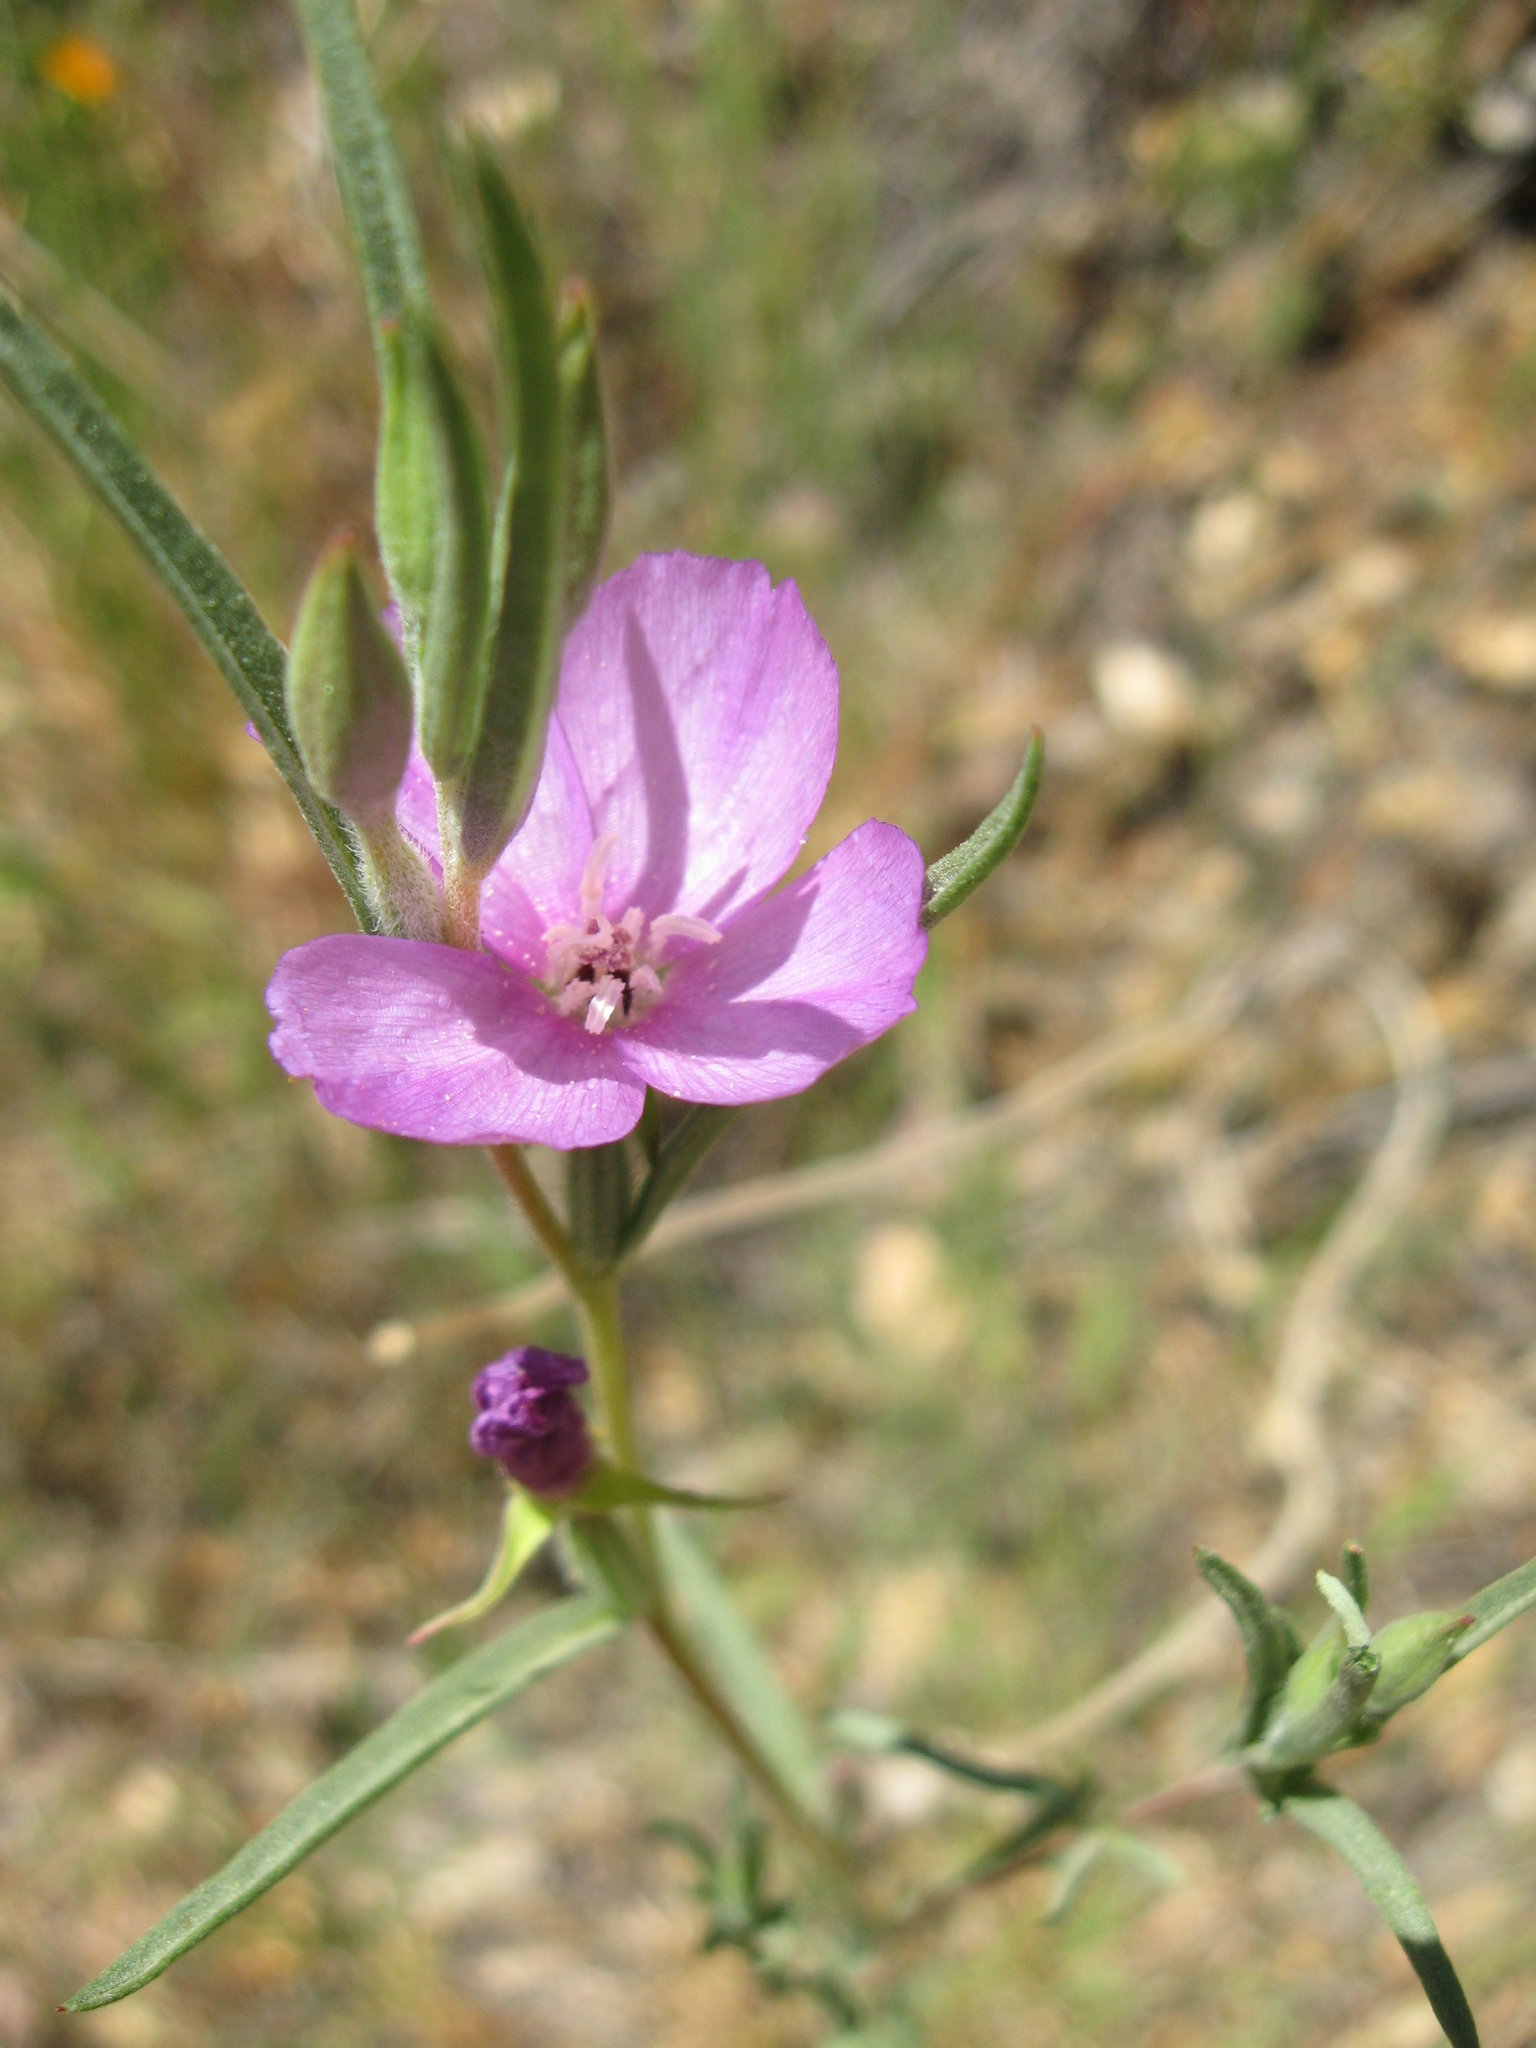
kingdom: Plantae
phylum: Tracheophyta
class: Magnoliopsida
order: Myrtales
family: Onagraceae
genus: Clarkia
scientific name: Clarkia purpurea
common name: Purple clarkia
